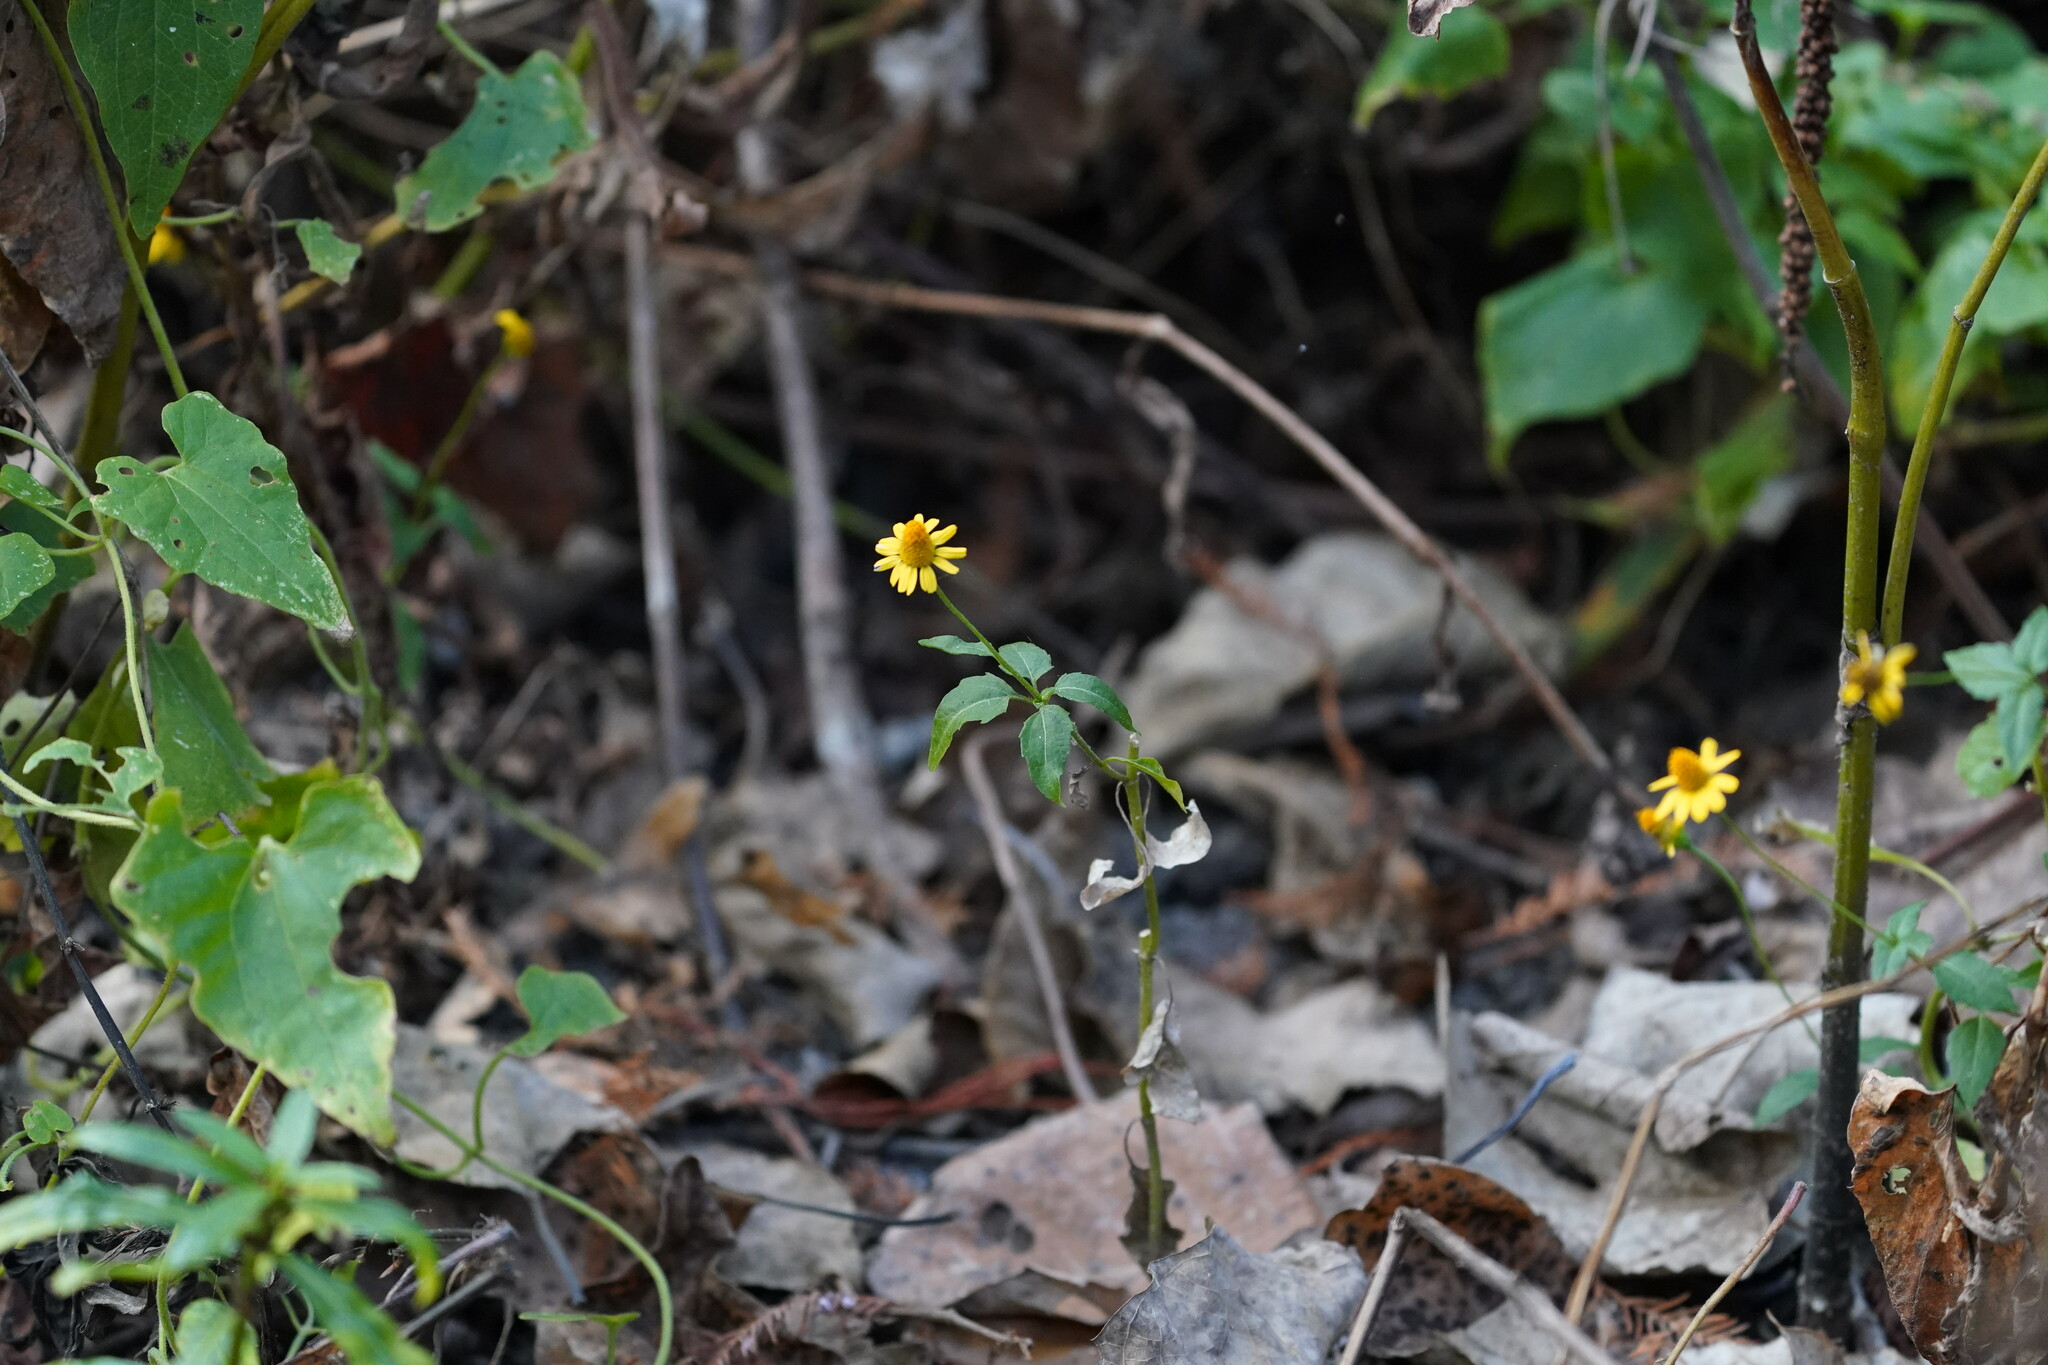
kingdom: Plantae
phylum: Tracheophyta
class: Magnoliopsida
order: Asterales
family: Asteraceae
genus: Acmella
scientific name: Acmella repens
